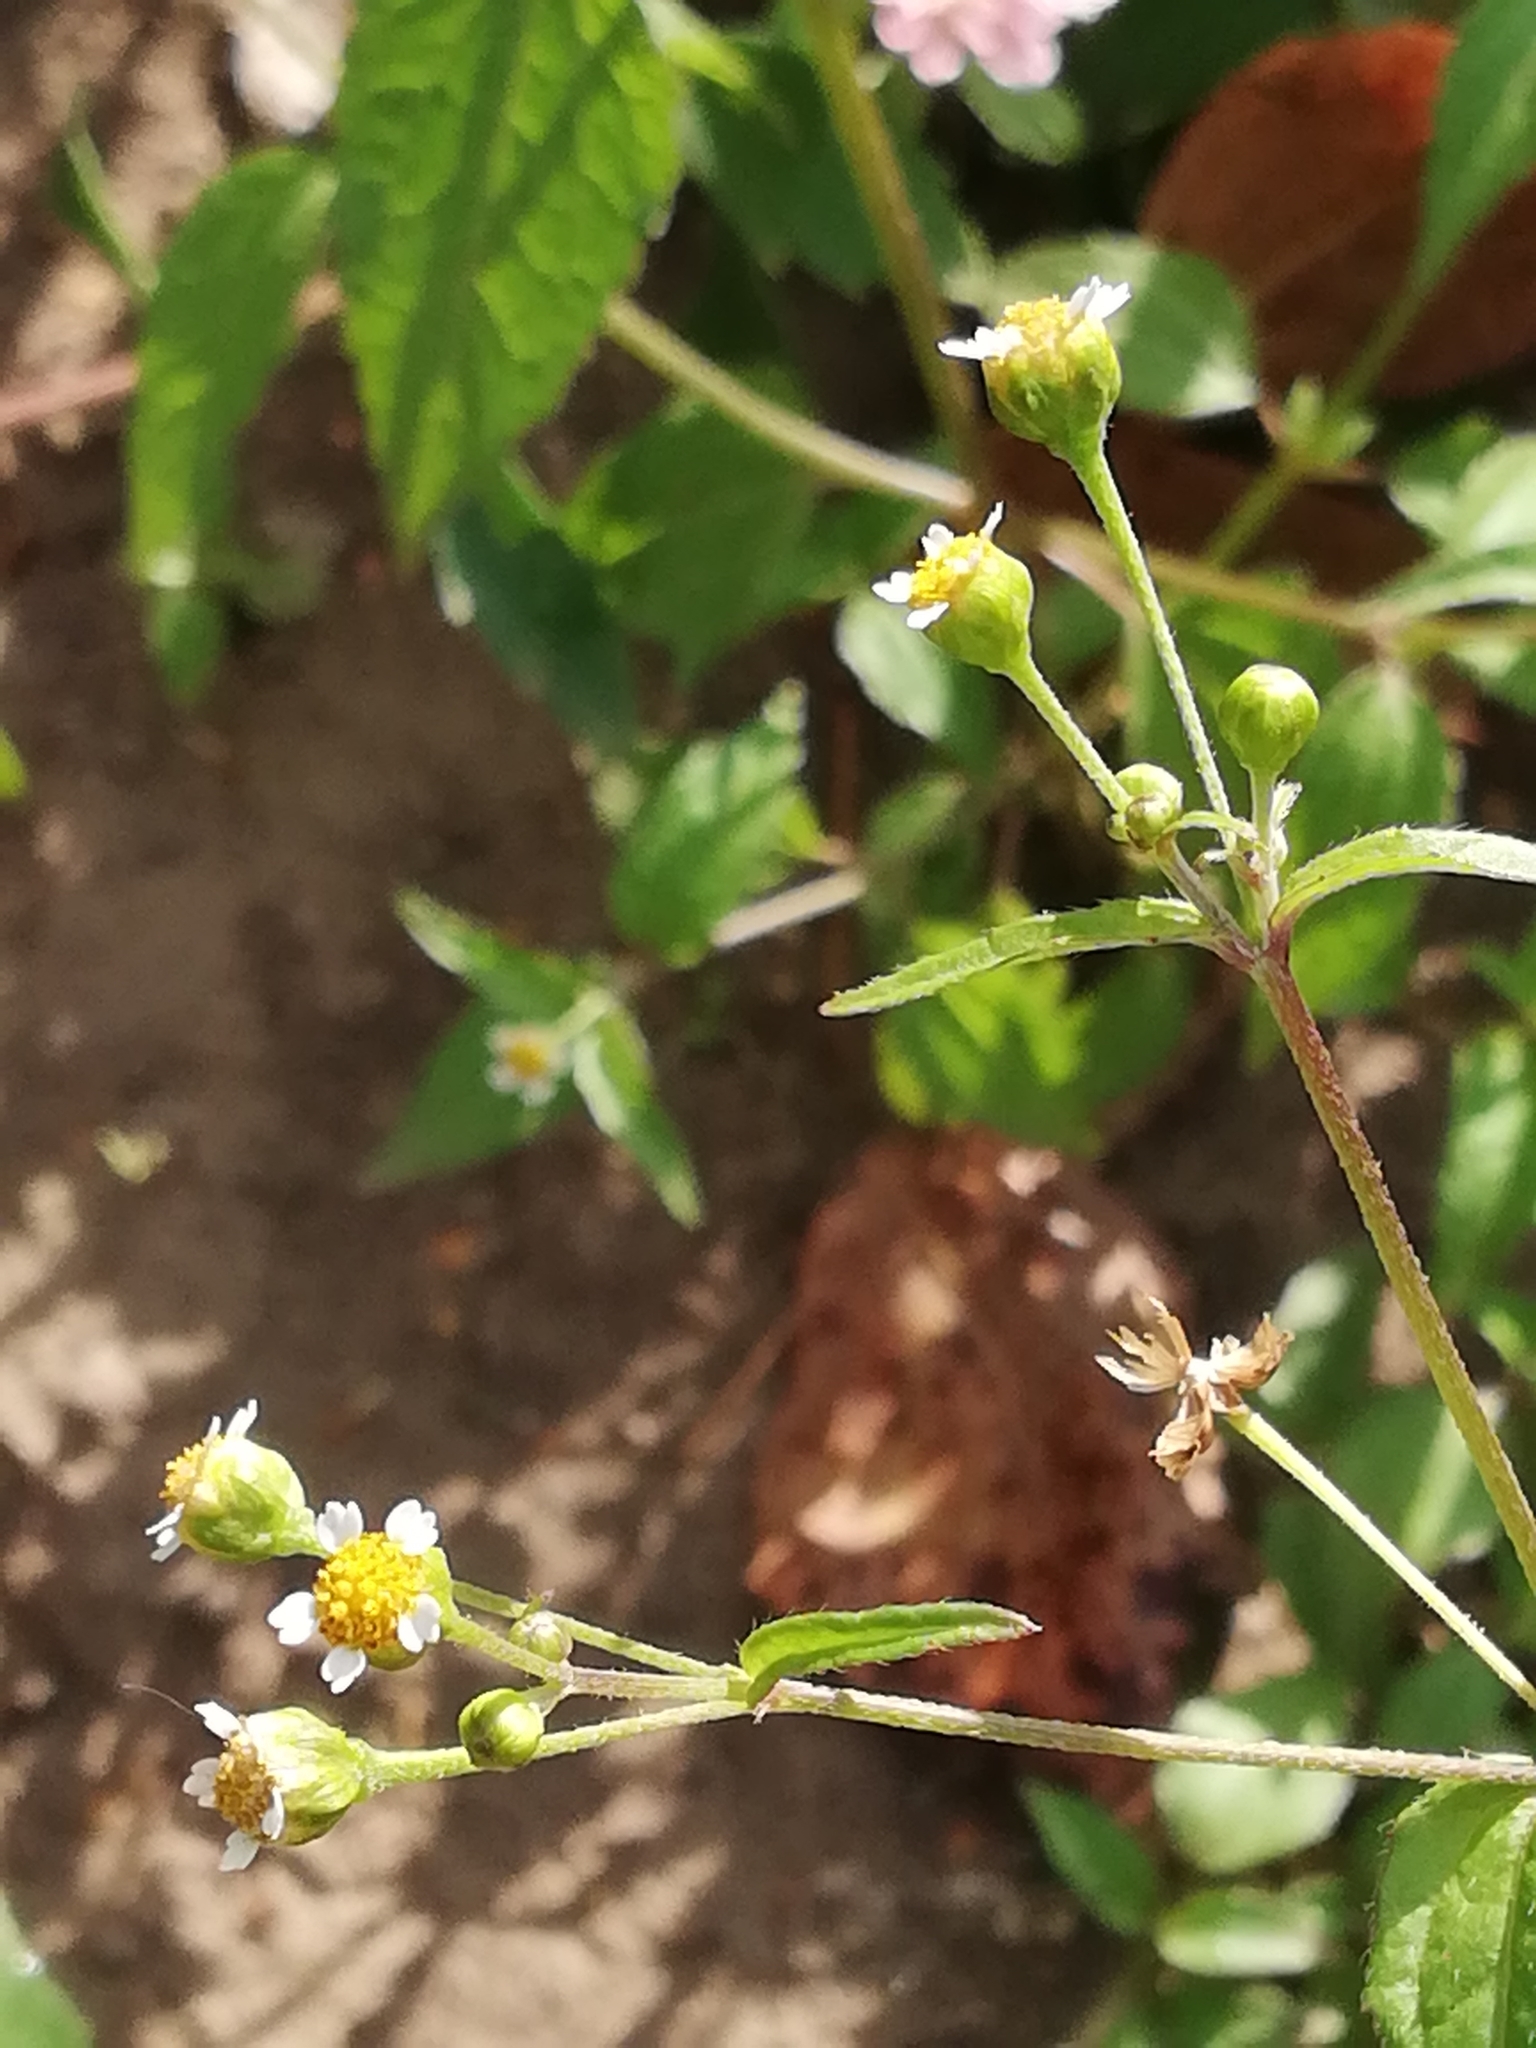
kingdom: Plantae
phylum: Tracheophyta
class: Magnoliopsida
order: Asterales
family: Asteraceae
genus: Galinsoga
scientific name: Galinsoga parviflora
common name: Gallant soldier
